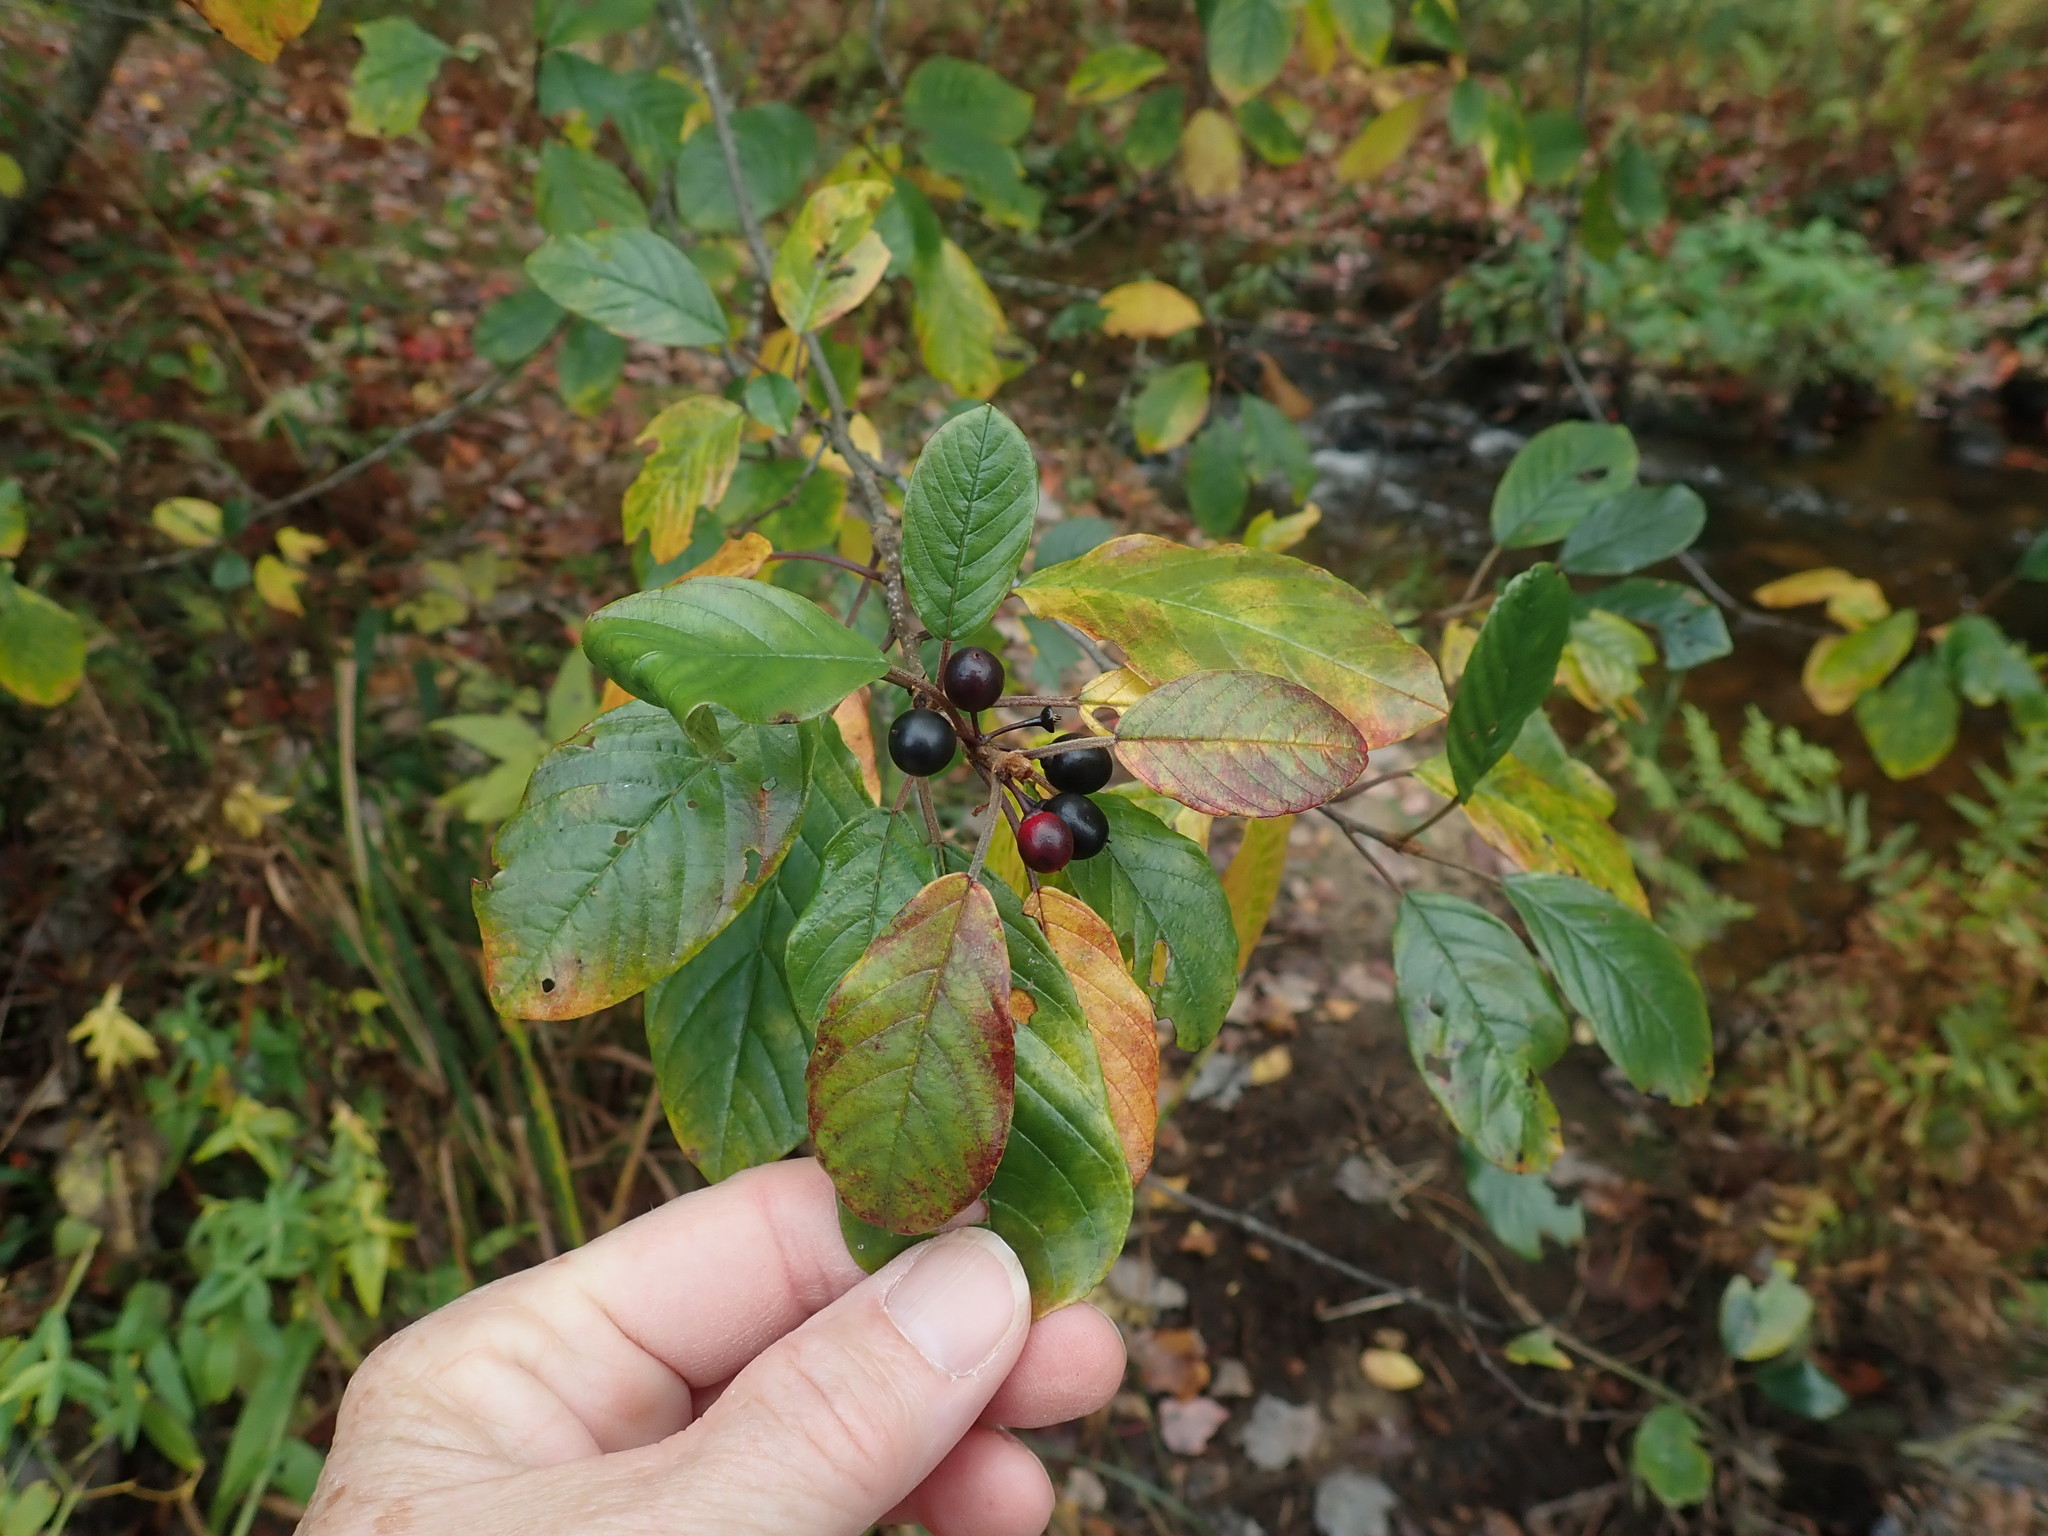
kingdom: Plantae
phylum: Tracheophyta
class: Magnoliopsida
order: Rosales
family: Rhamnaceae
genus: Frangula
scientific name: Frangula alnus
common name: Alder buckthorn
